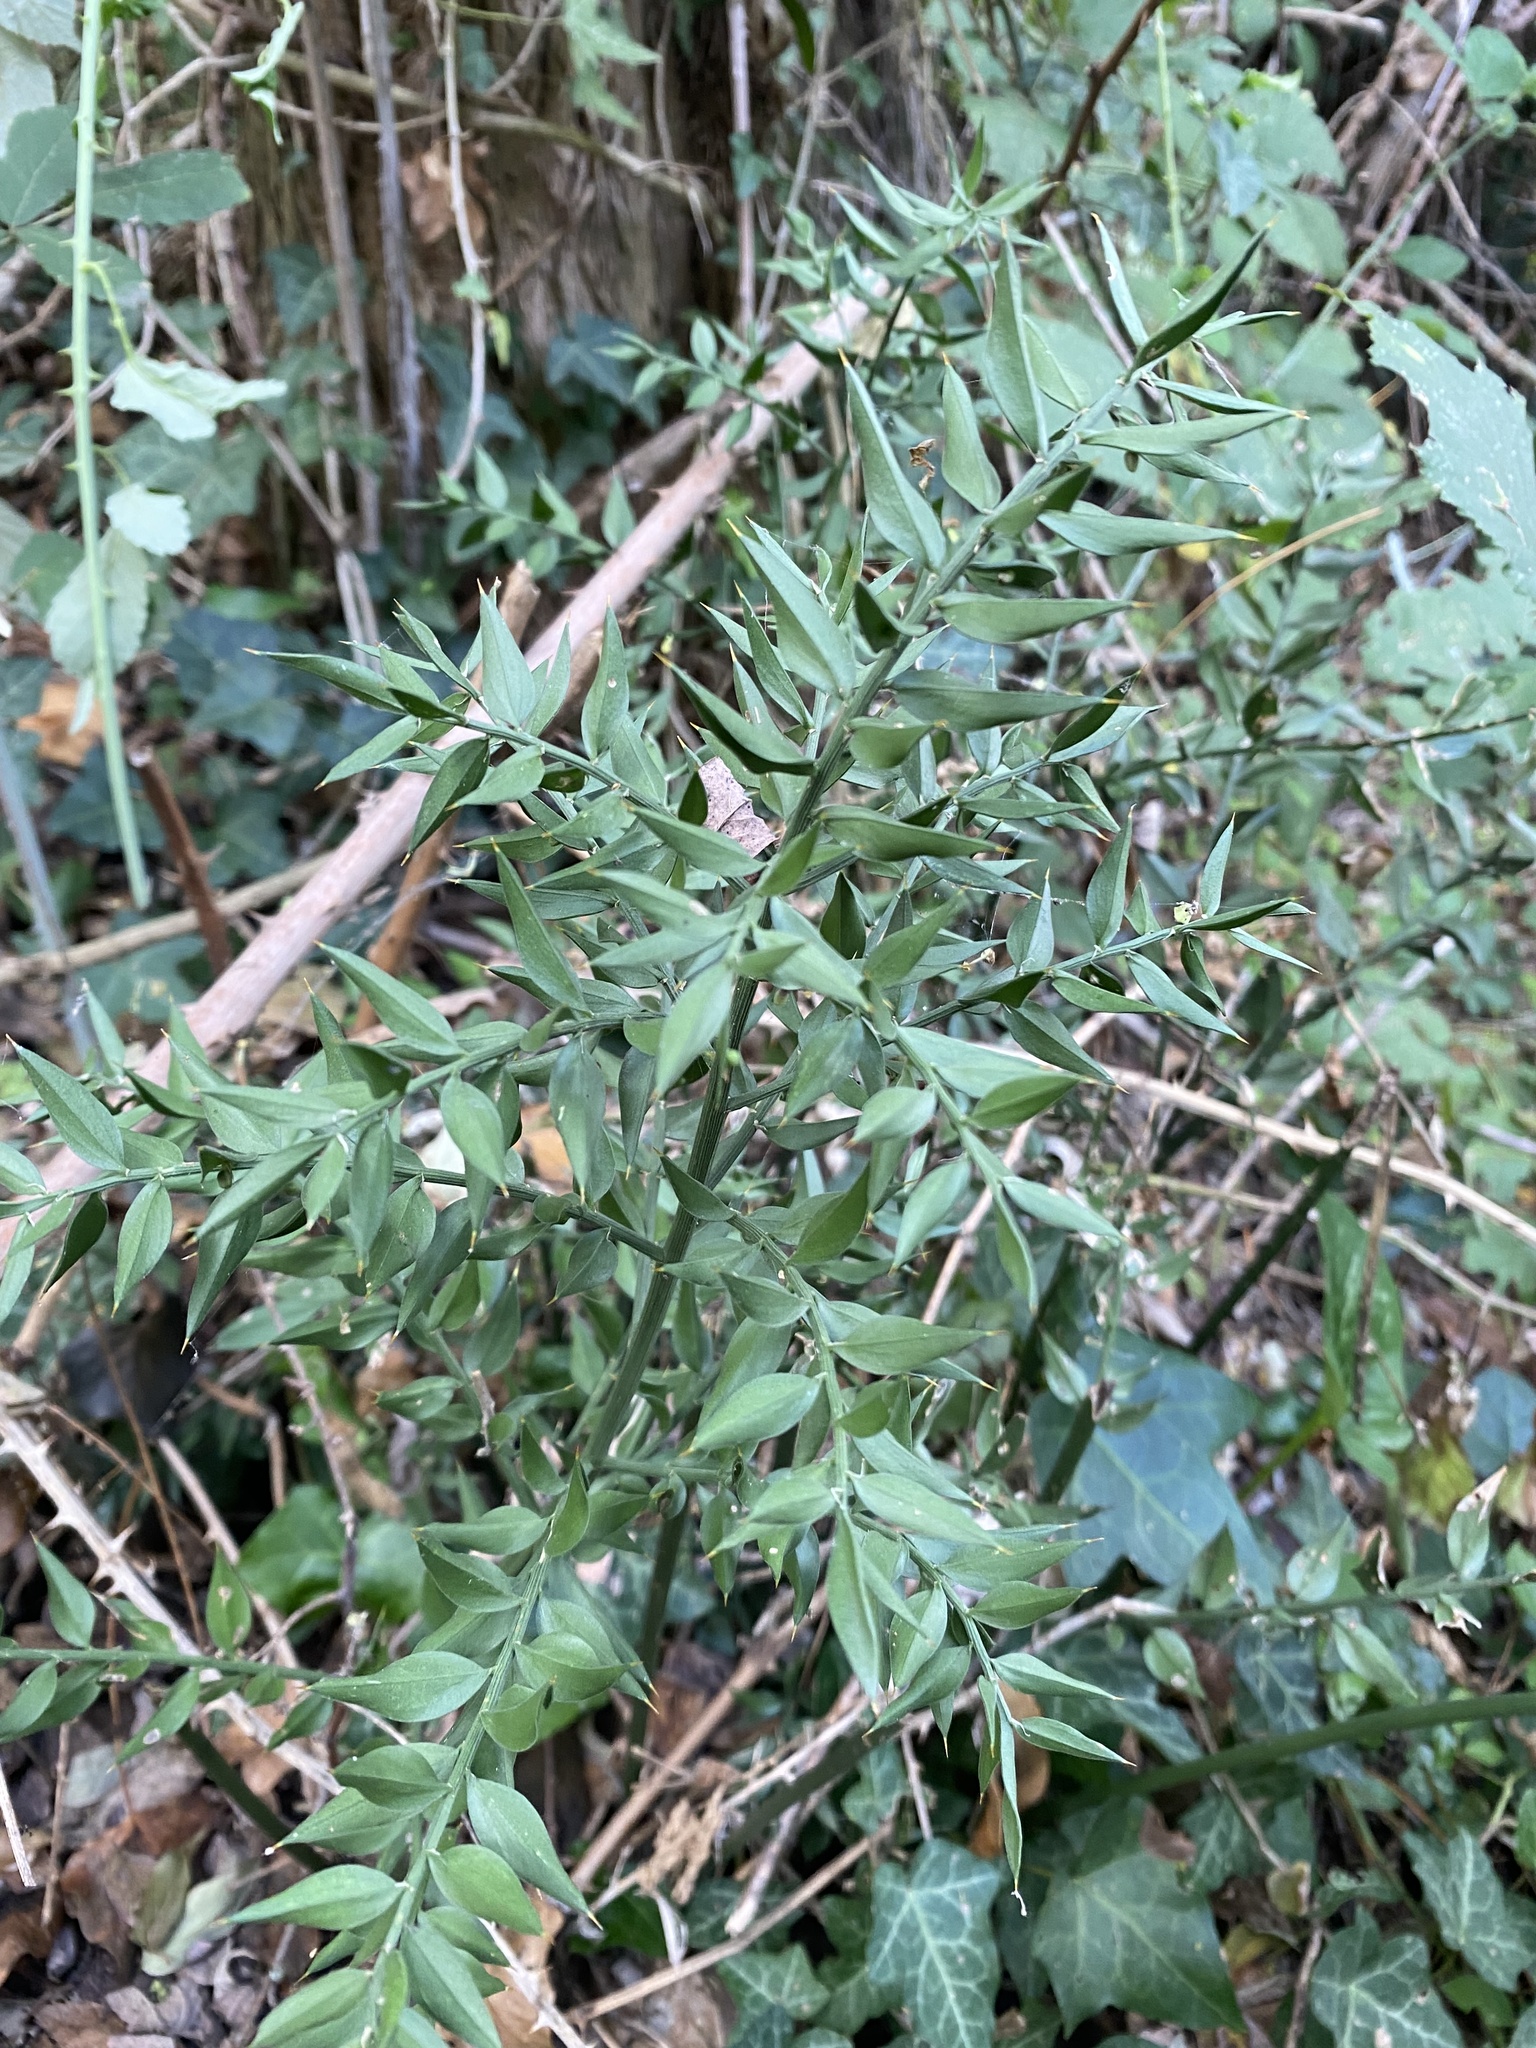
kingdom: Plantae
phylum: Tracheophyta
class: Liliopsida
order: Asparagales
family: Asparagaceae
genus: Ruscus
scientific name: Ruscus aculeatus
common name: Butcher's-broom
